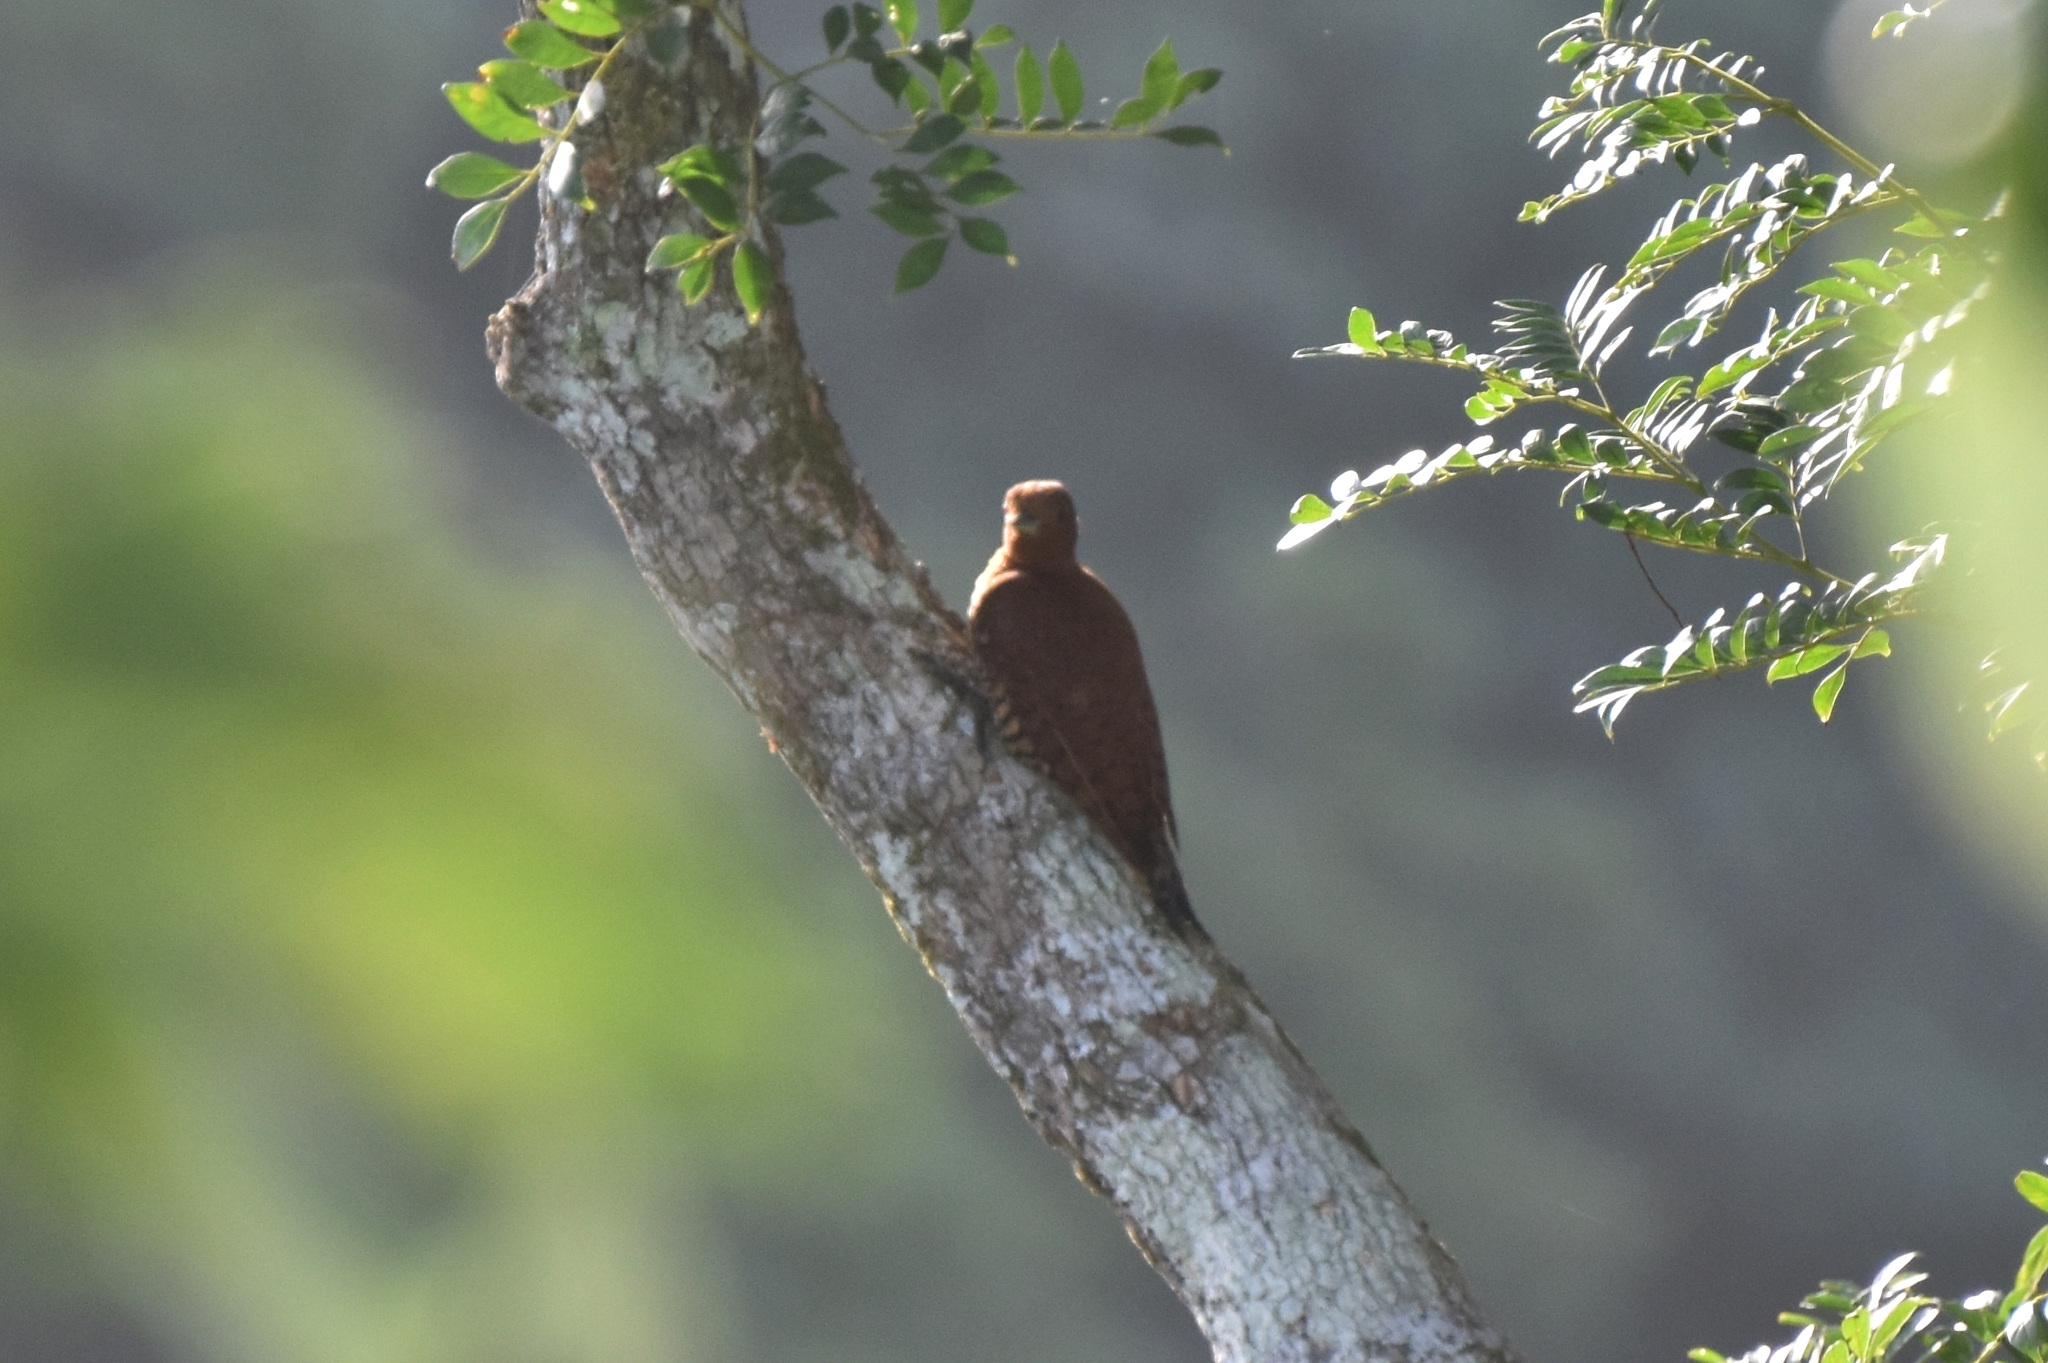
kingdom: Animalia
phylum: Chordata
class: Aves
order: Piciformes
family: Picidae
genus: Celeus
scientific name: Celeus loricatus
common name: Cinnamon woodpecker
